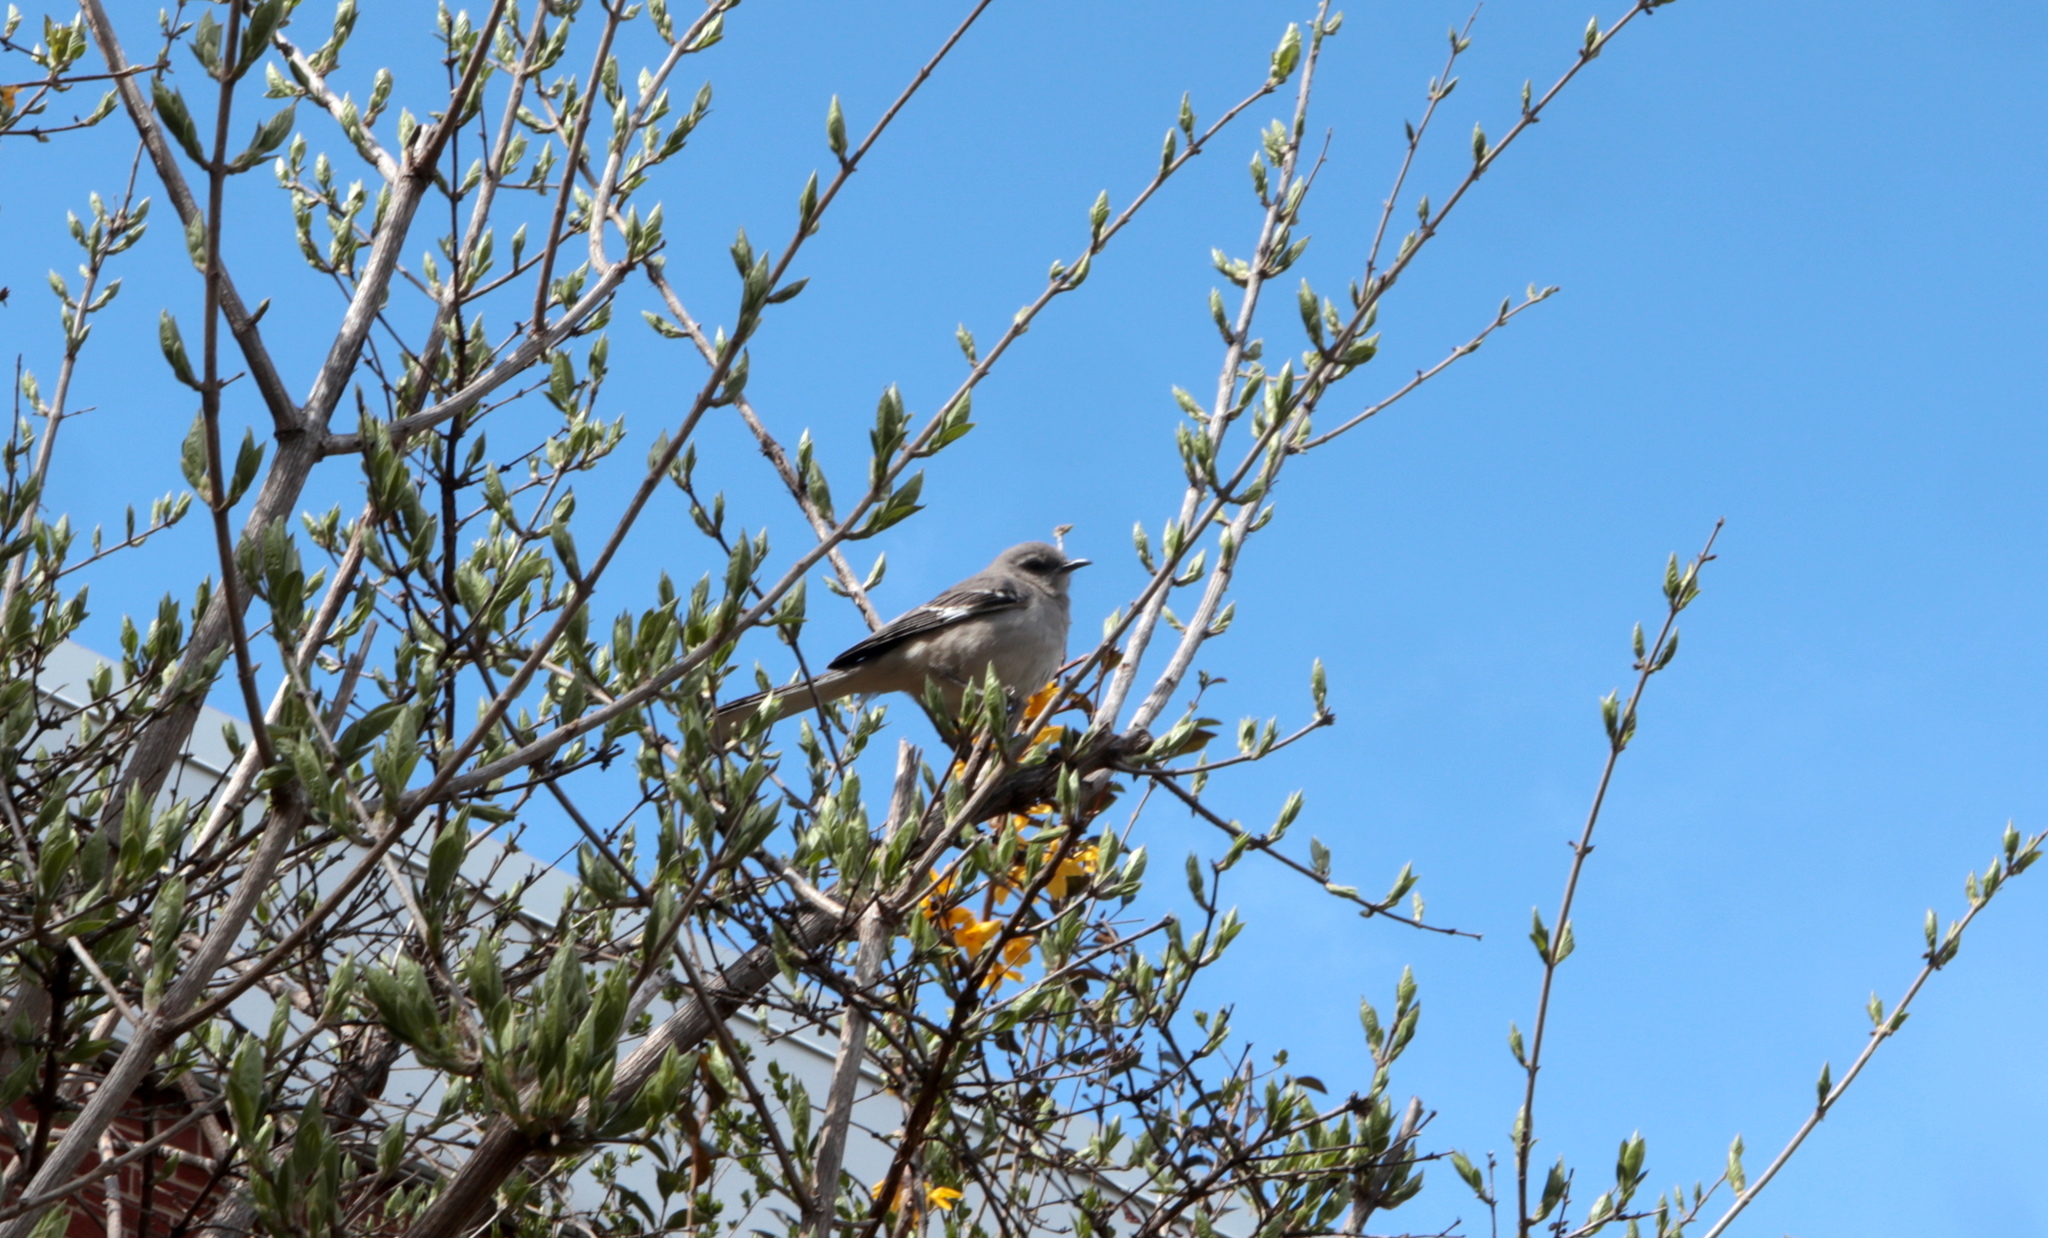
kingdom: Animalia
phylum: Chordata
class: Aves
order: Passeriformes
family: Mimidae
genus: Mimus
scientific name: Mimus polyglottos
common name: Northern mockingbird
